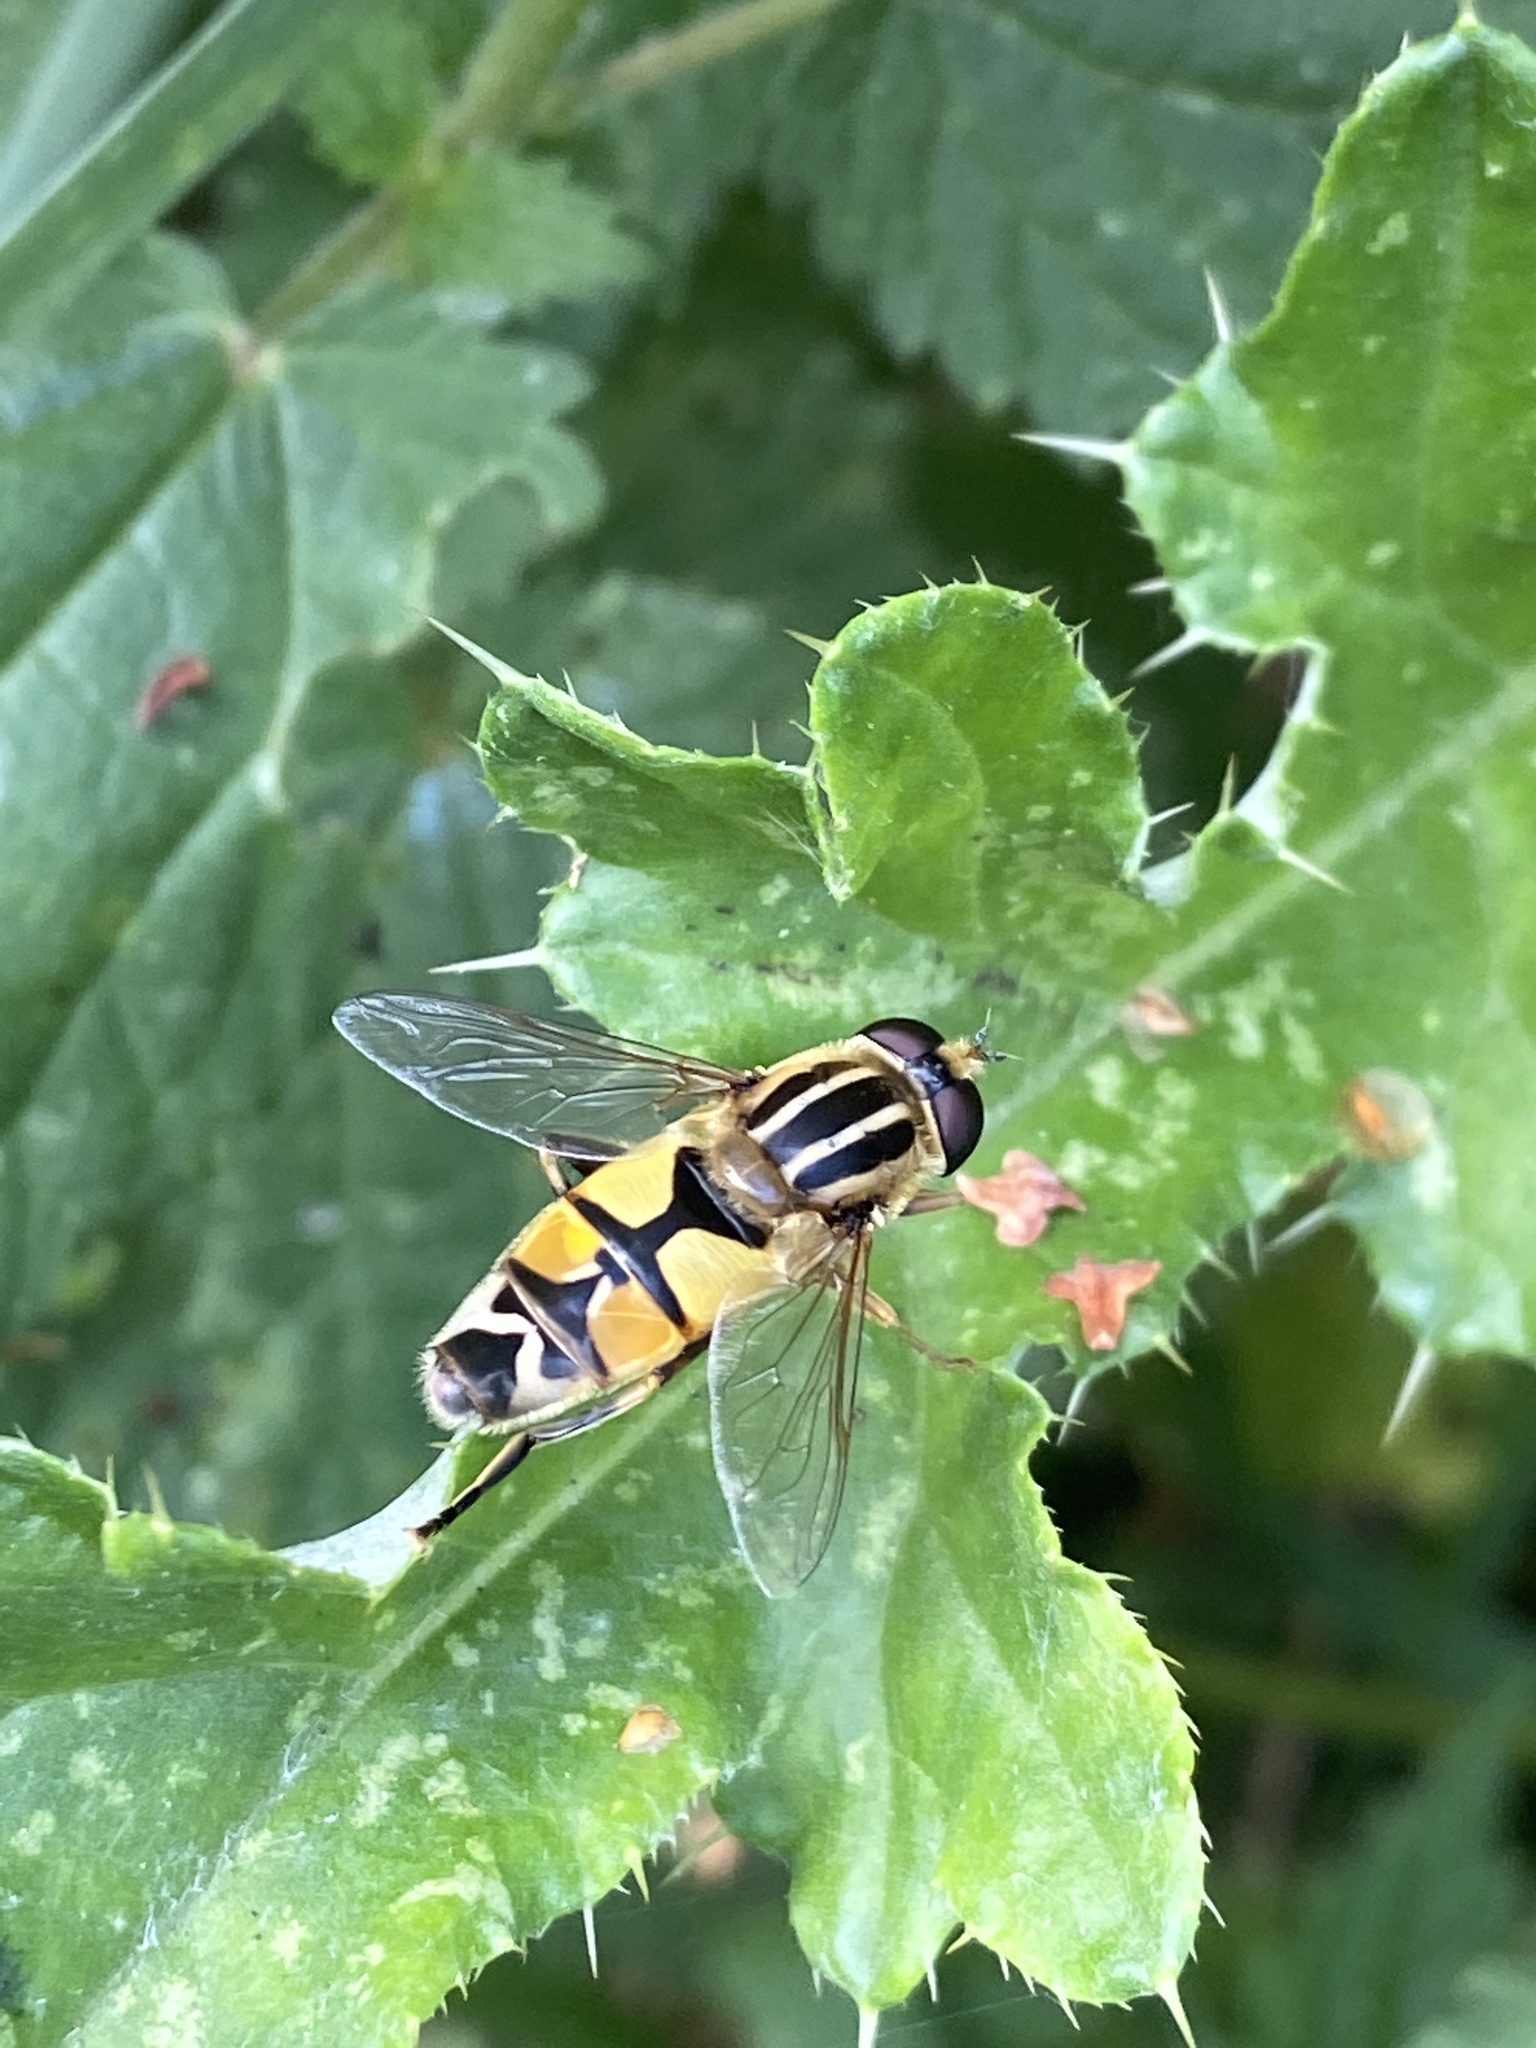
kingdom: Animalia
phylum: Arthropoda
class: Insecta
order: Diptera
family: Syrphidae
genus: Helophilus
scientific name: Helophilus trivittatus
